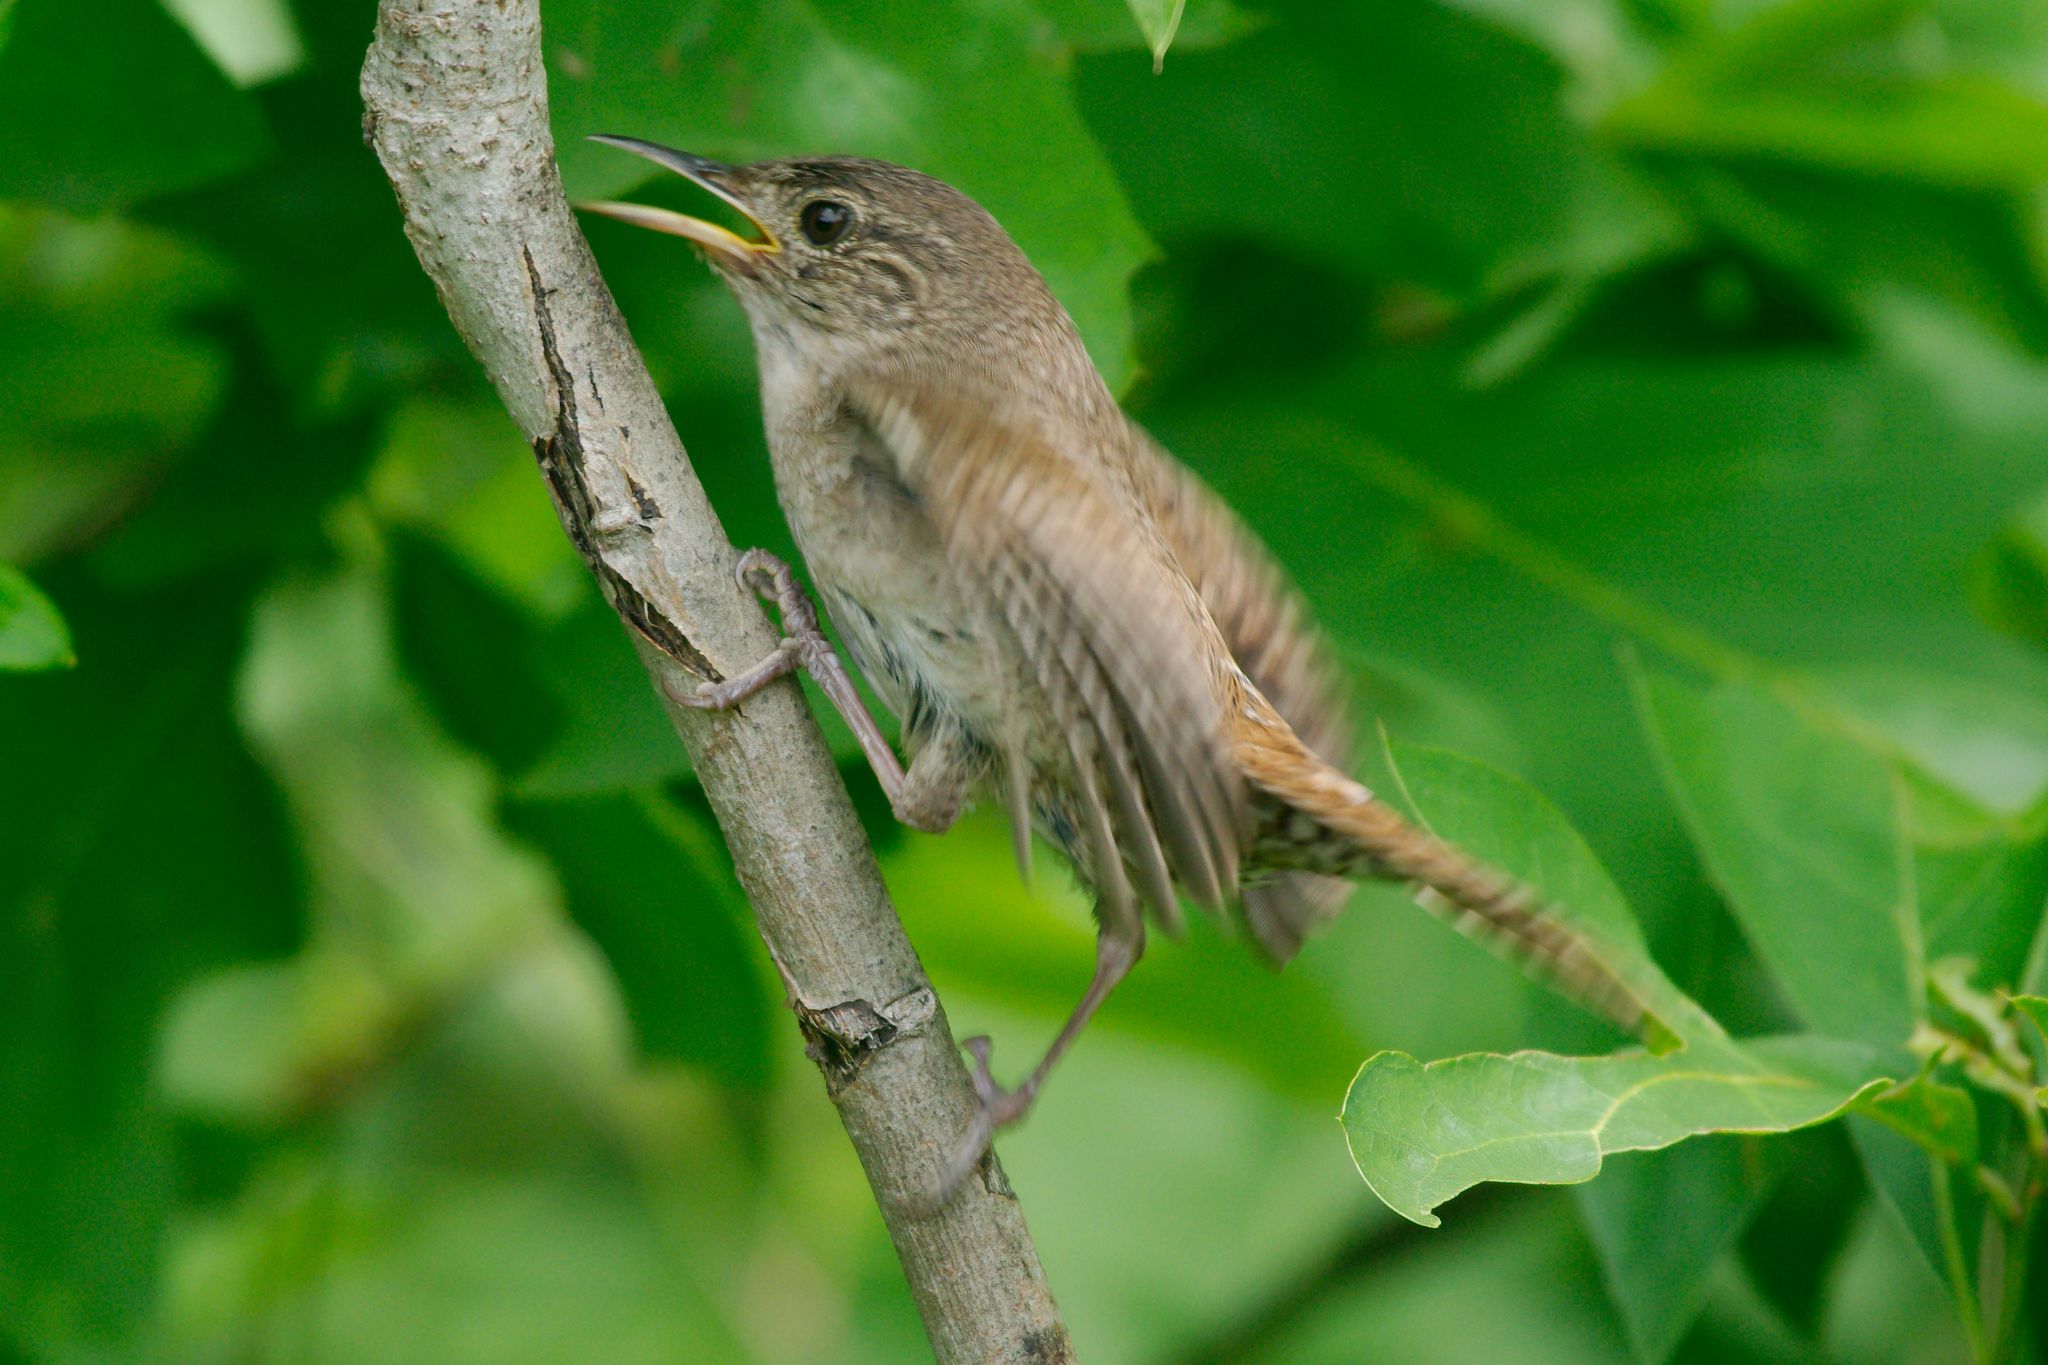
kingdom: Animalia
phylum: Chordata
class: Aves
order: Passeriformes
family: Troglodytidae
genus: Troglodytes
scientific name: Troglodytes aedon
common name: House wren
